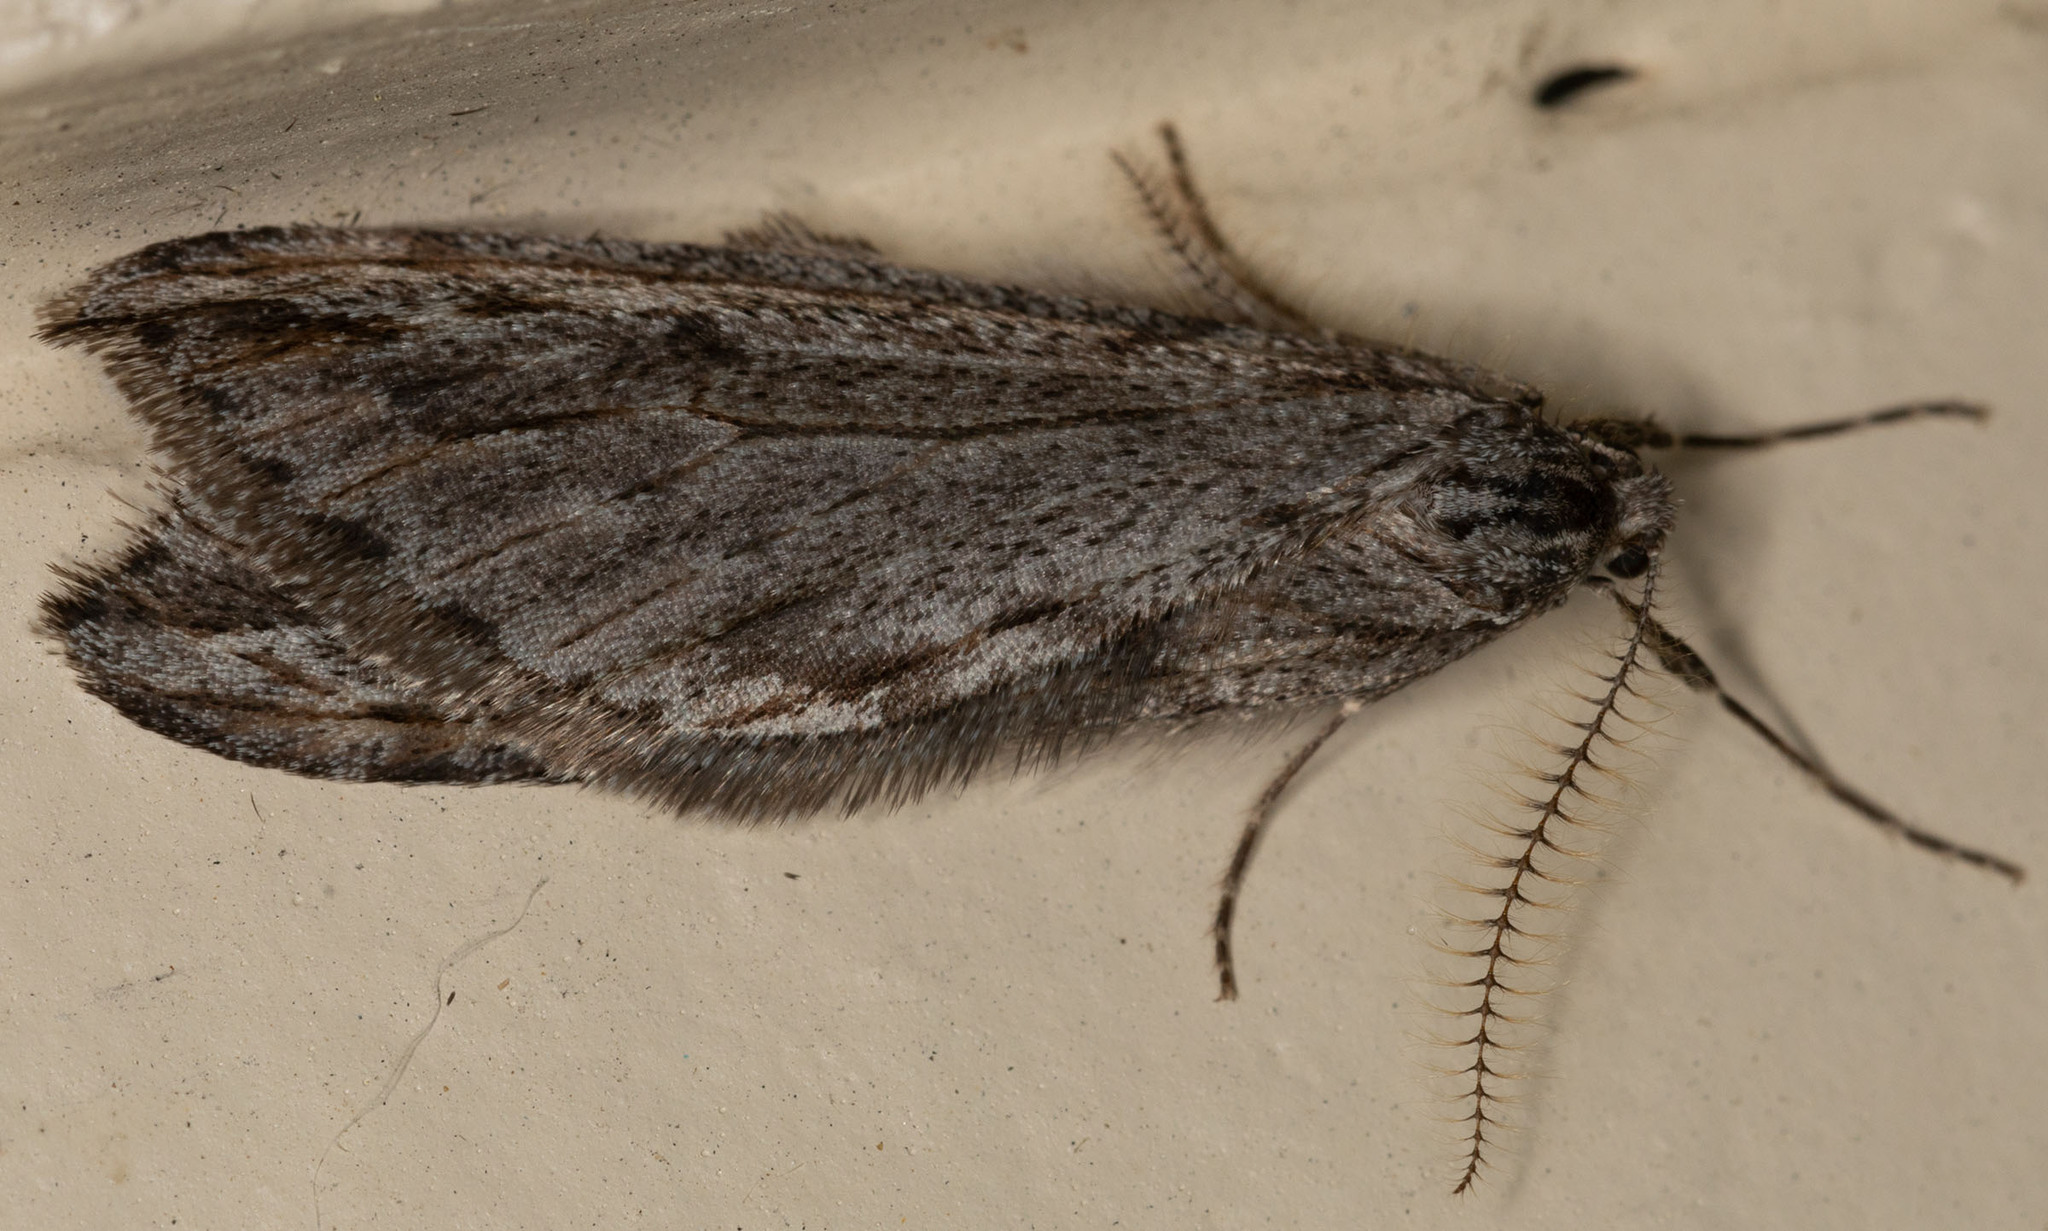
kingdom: Animalia
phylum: Arthropoda
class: Insecta
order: Lepidoptera
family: Geometridae
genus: Paleacrita
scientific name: Paleacrita longiciliata
